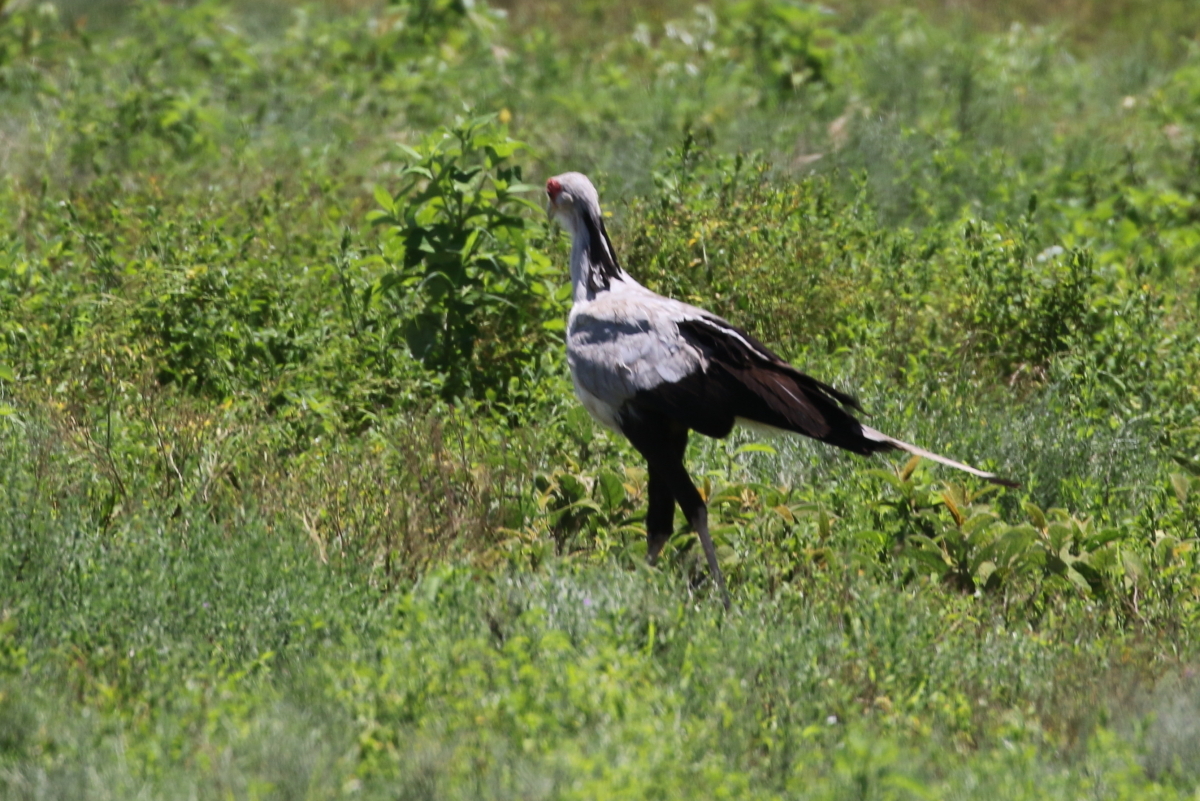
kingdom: Animalia
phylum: Chordata
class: Aves
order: Accipitriformes
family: Sagittariidae
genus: Sagittarius
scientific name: Sagittarius serpentarius
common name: Secretarybird
